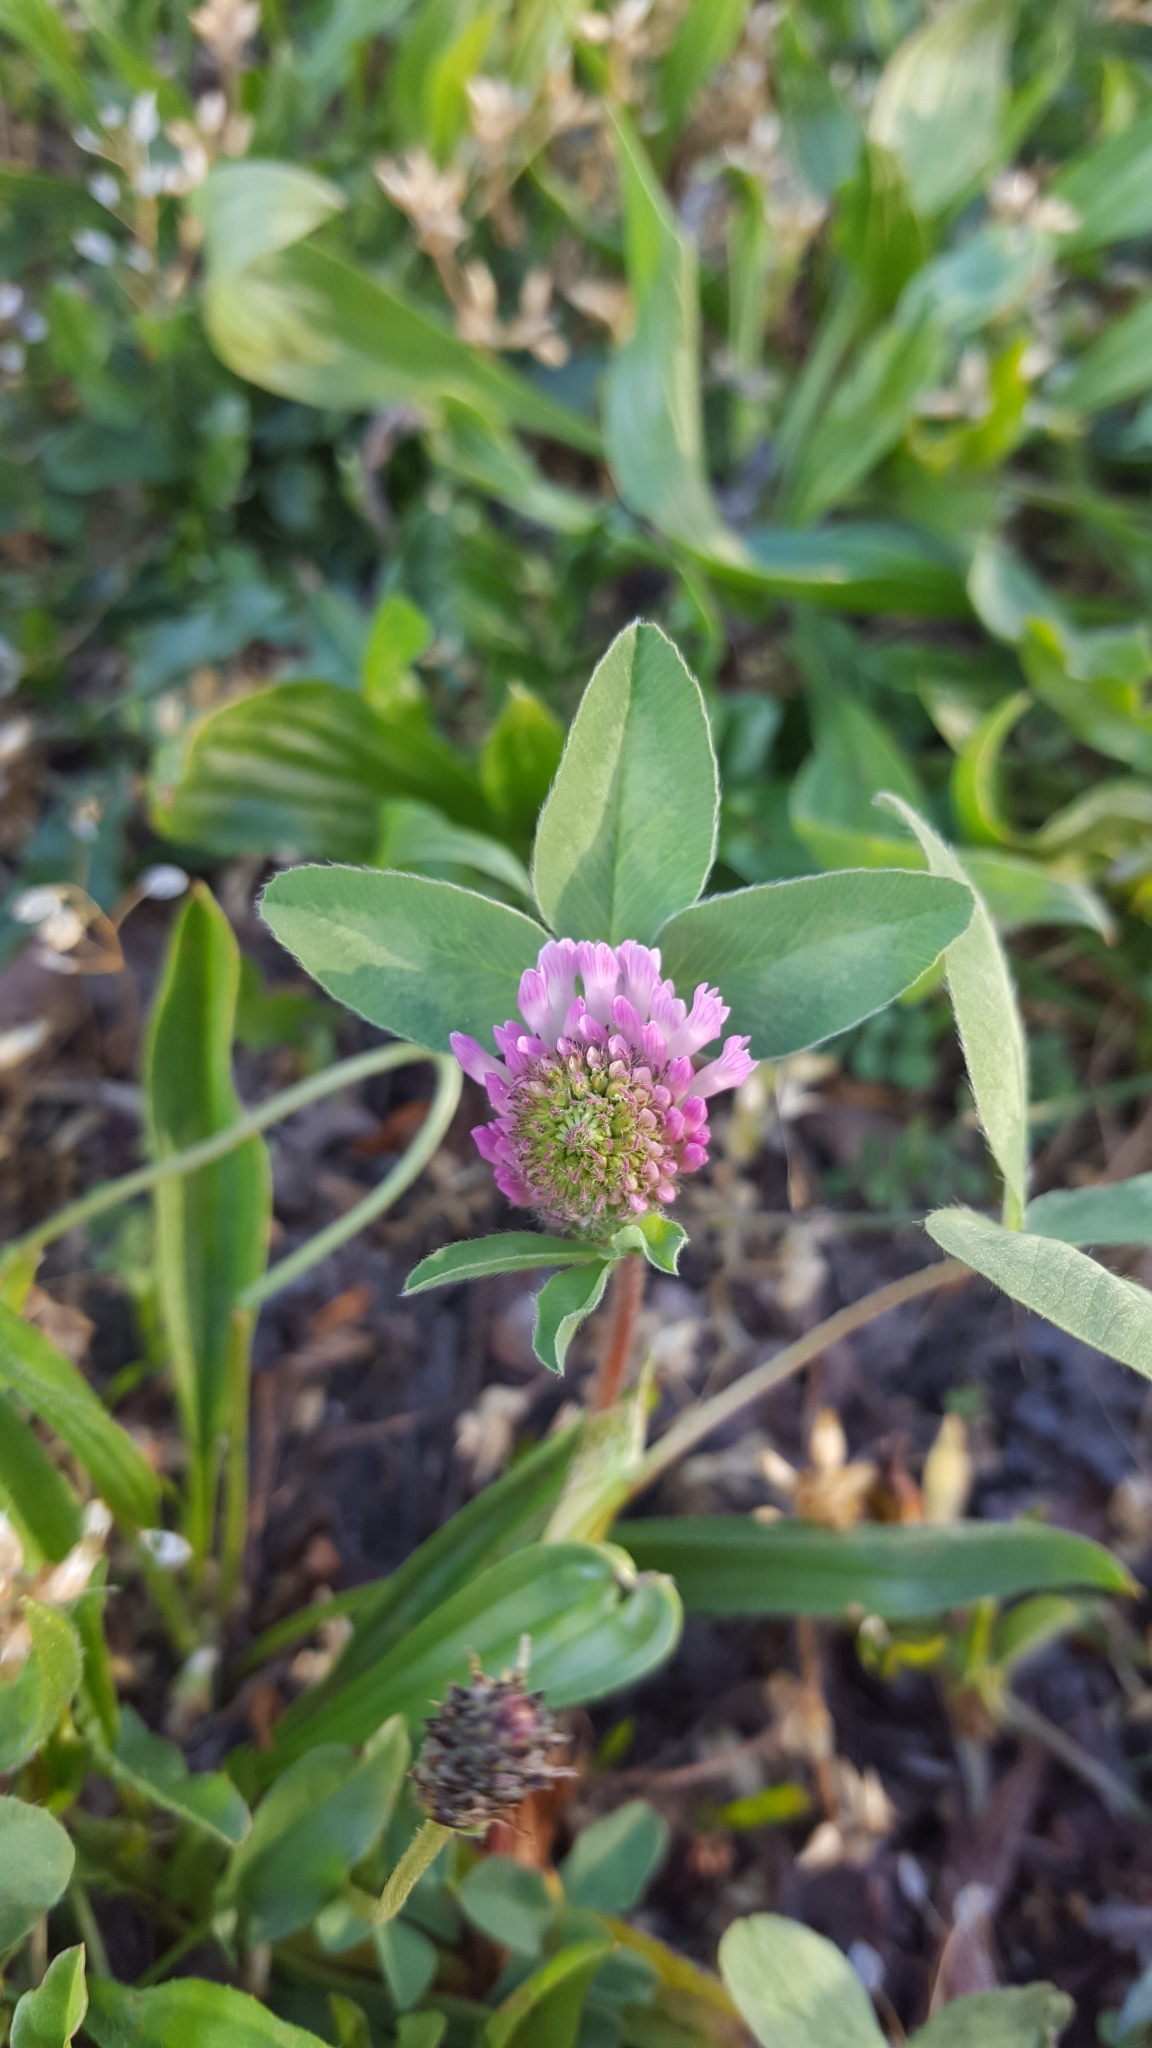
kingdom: Plantae
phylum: Tracheophyta
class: Magnoliopsida
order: Fabales
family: Fabaceae
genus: Trifolium
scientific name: Trifolium pratense
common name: Red clover
